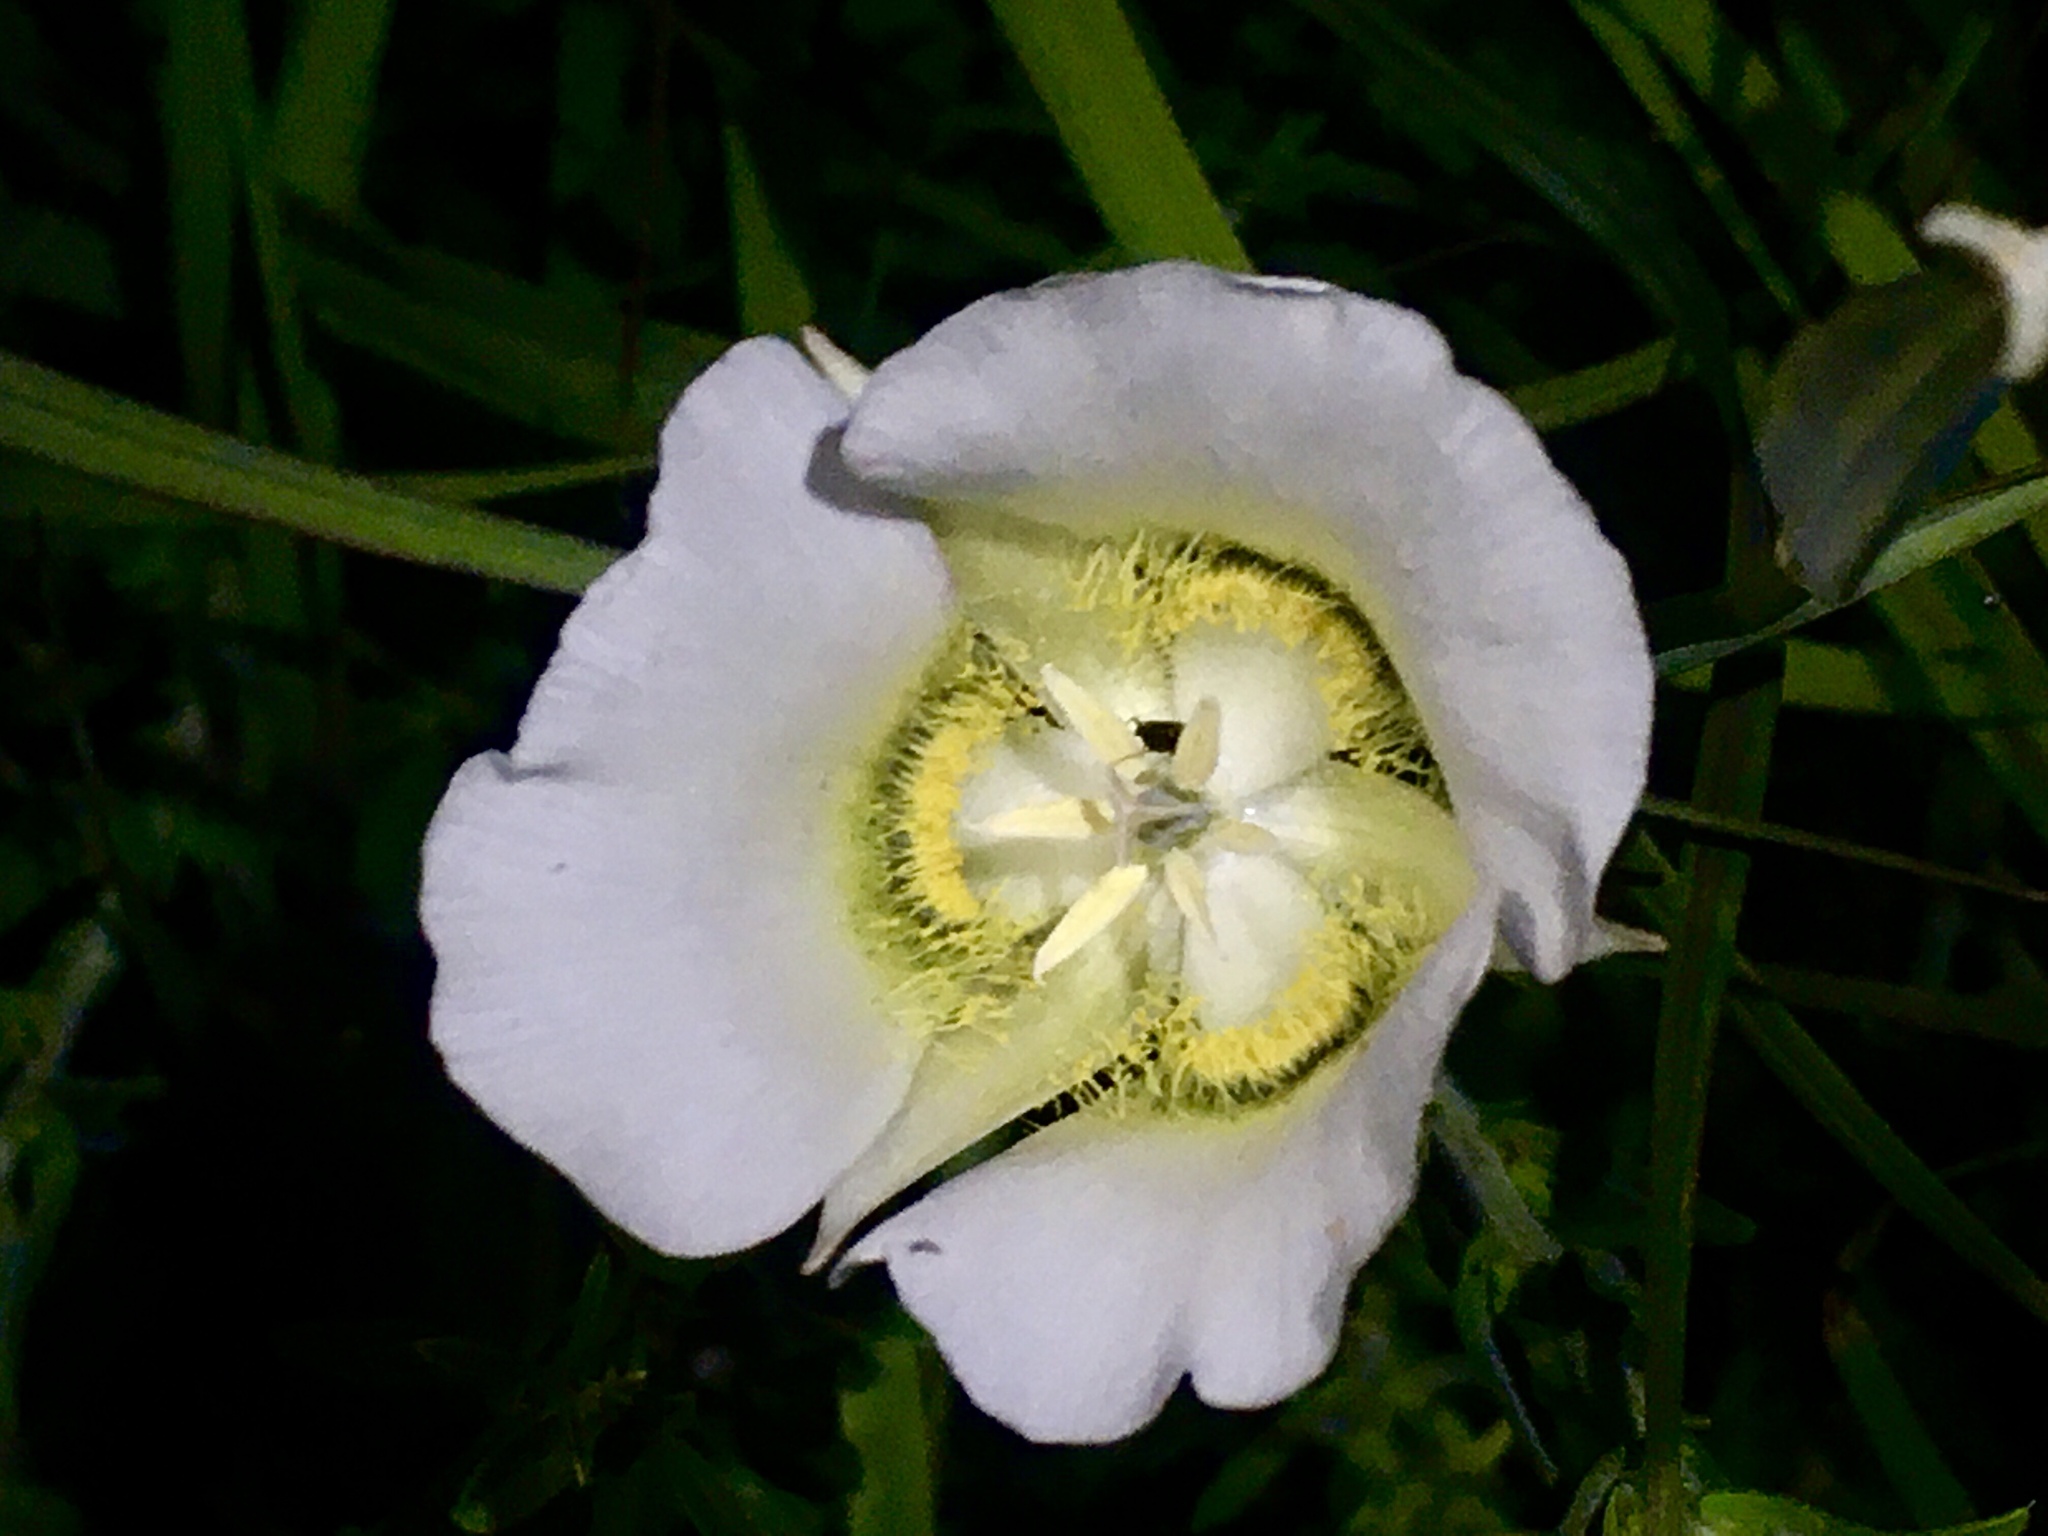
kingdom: Plantae
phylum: Tracheophyta
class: Liliopsida
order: Liliales
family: Liliaceae
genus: Calochortus
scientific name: Calochortus gunnisonii
